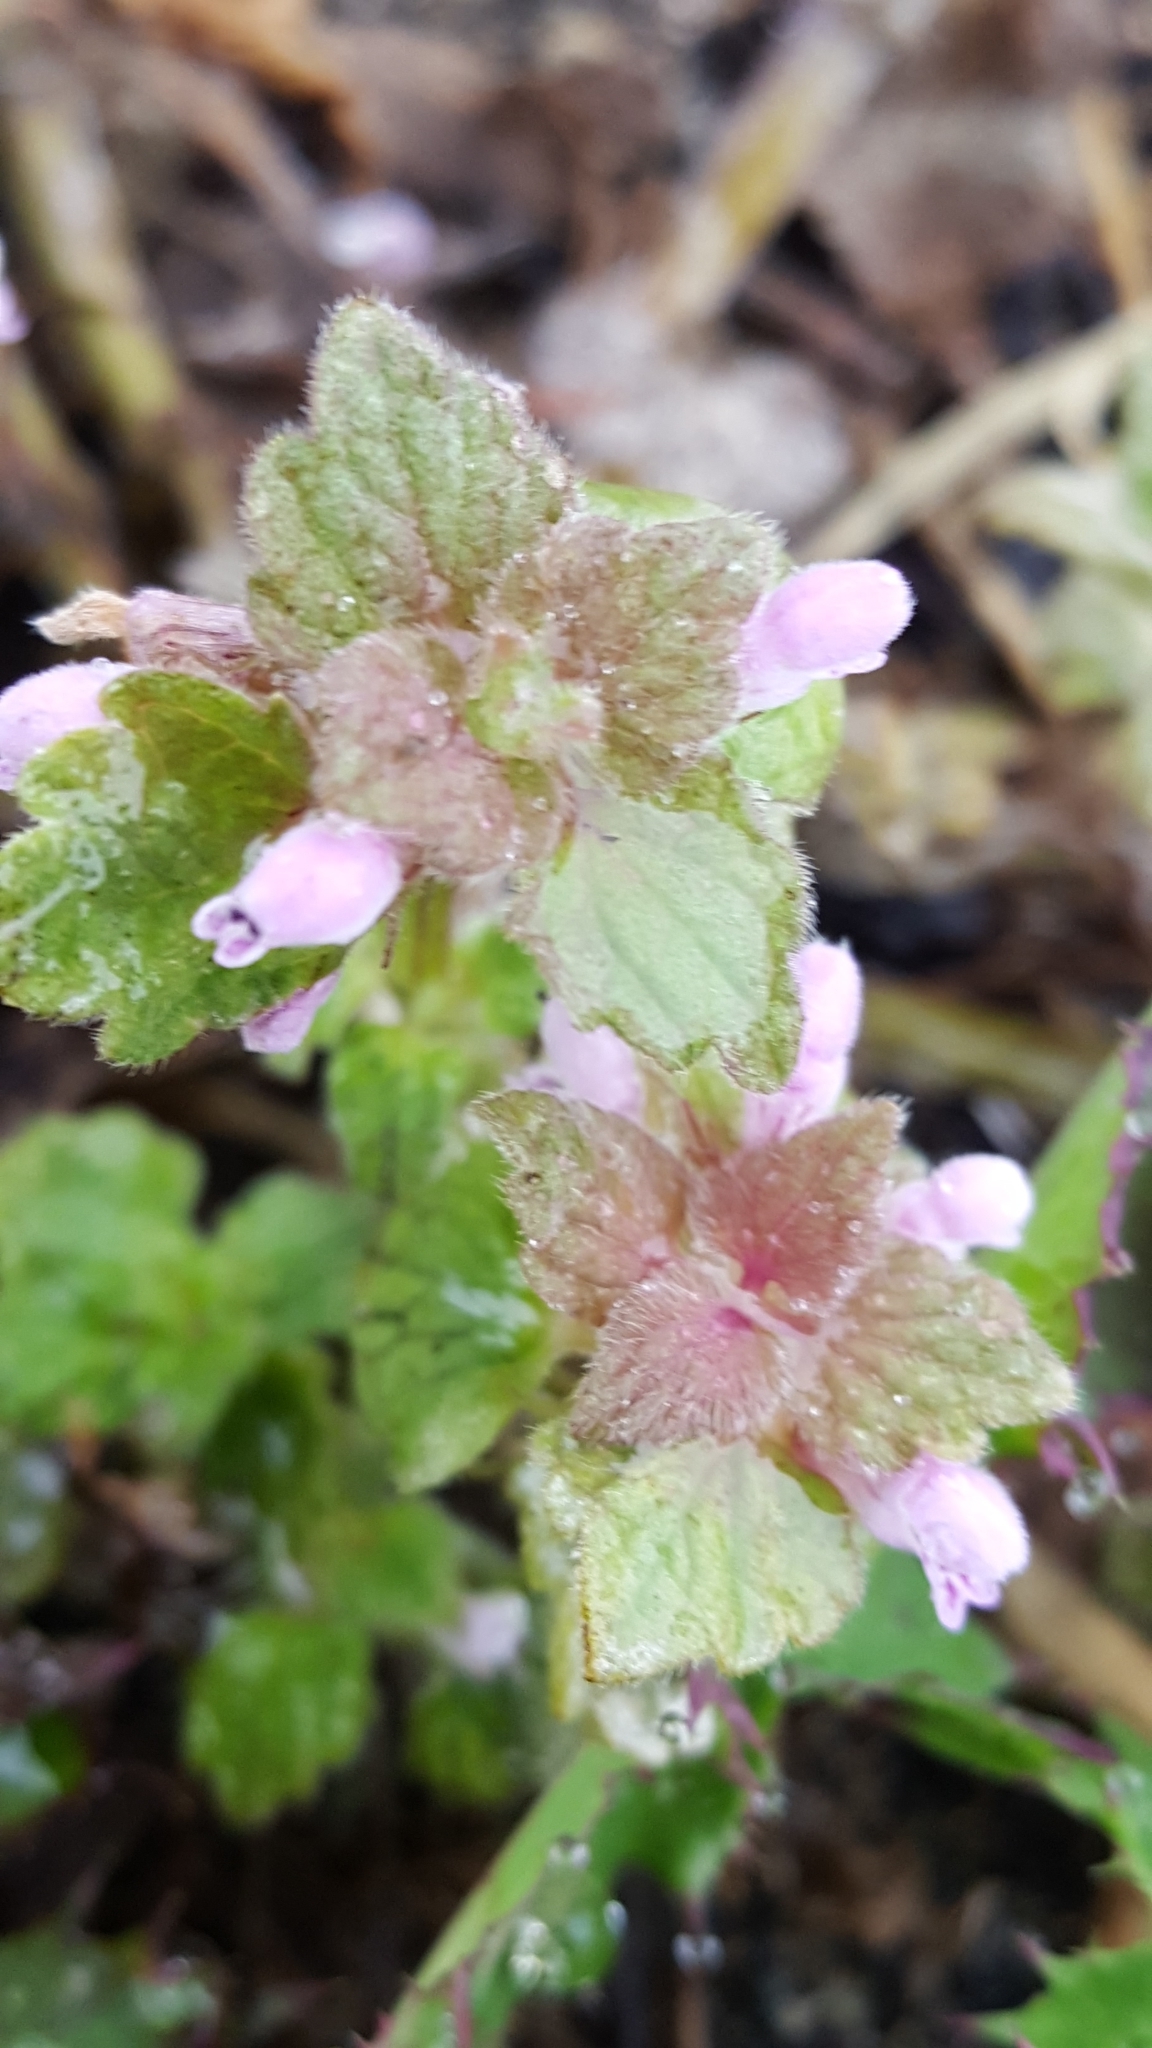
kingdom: Plantae
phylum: Tracheophyta
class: Magnoliopsida
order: Lamiales
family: Lamiaceae
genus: Lamium
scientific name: Lamium purpureum
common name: Red dead-nettle
